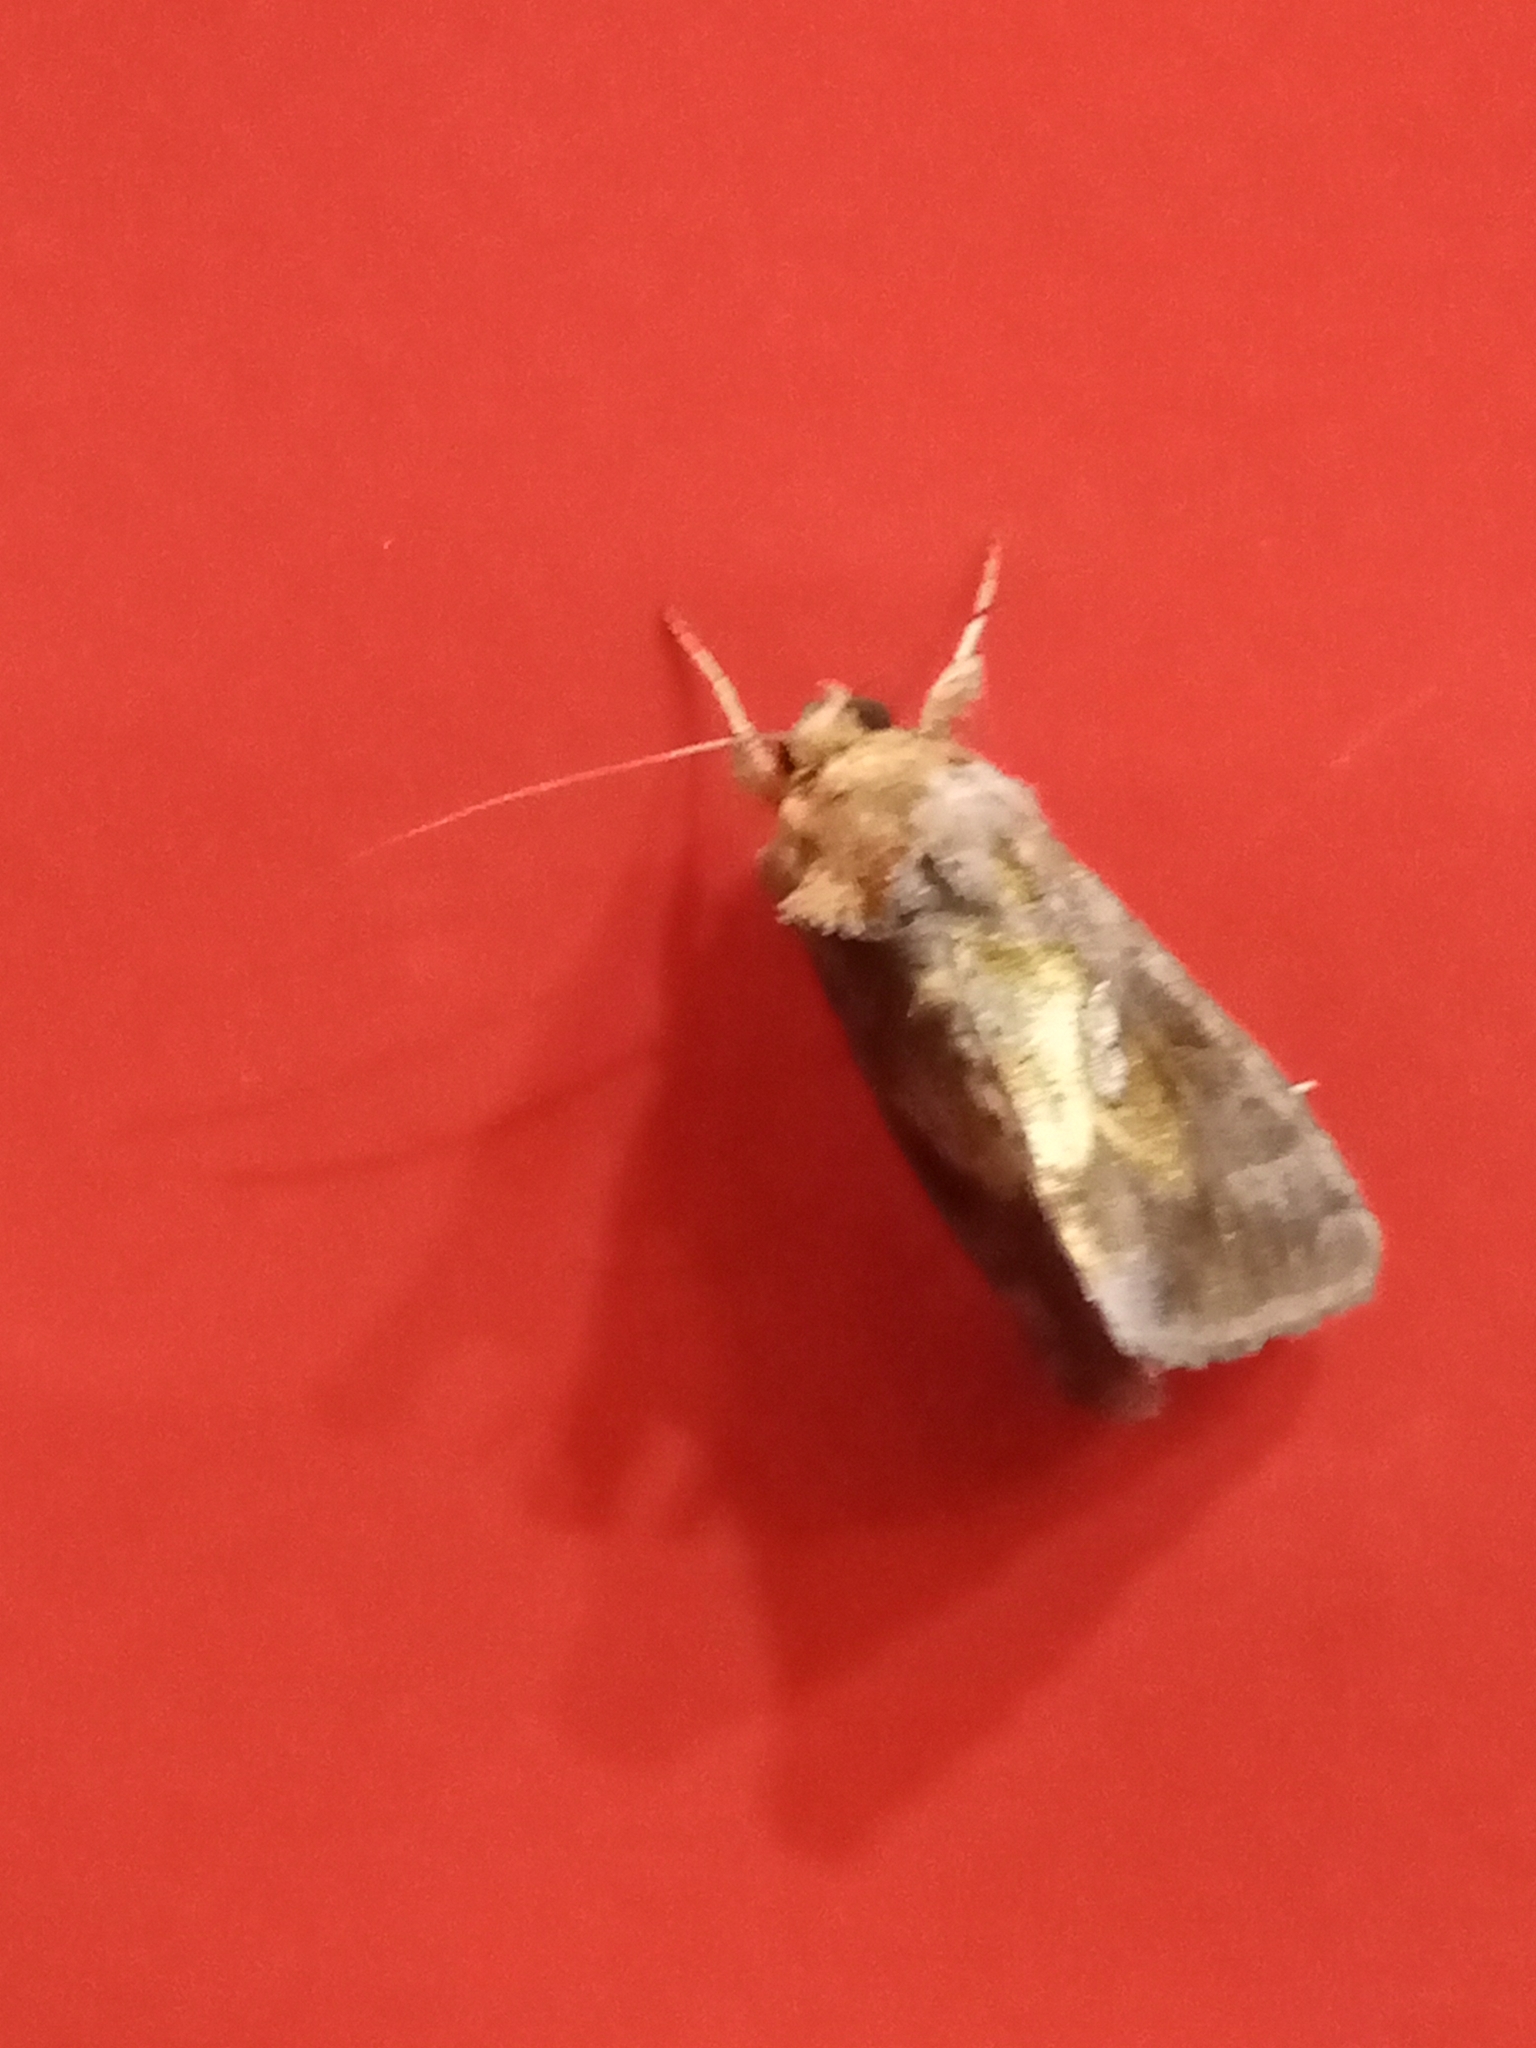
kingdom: Animalia
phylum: Arthropoda
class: Insecta
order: Lepidoptera
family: Noctuidae
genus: Chrysodeixis
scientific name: Chrysodeixis chalcites
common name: Golden twin-spot
